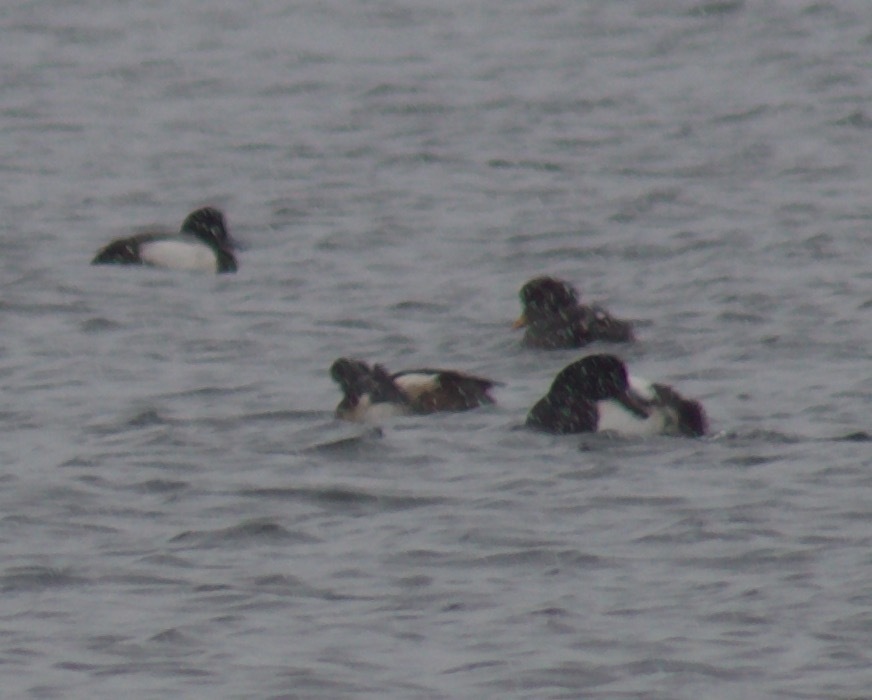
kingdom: Animalia
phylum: Chordata
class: Aves
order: Anseriformes
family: Anatidae
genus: Aythya
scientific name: Aythya marila
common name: Greater scaup
